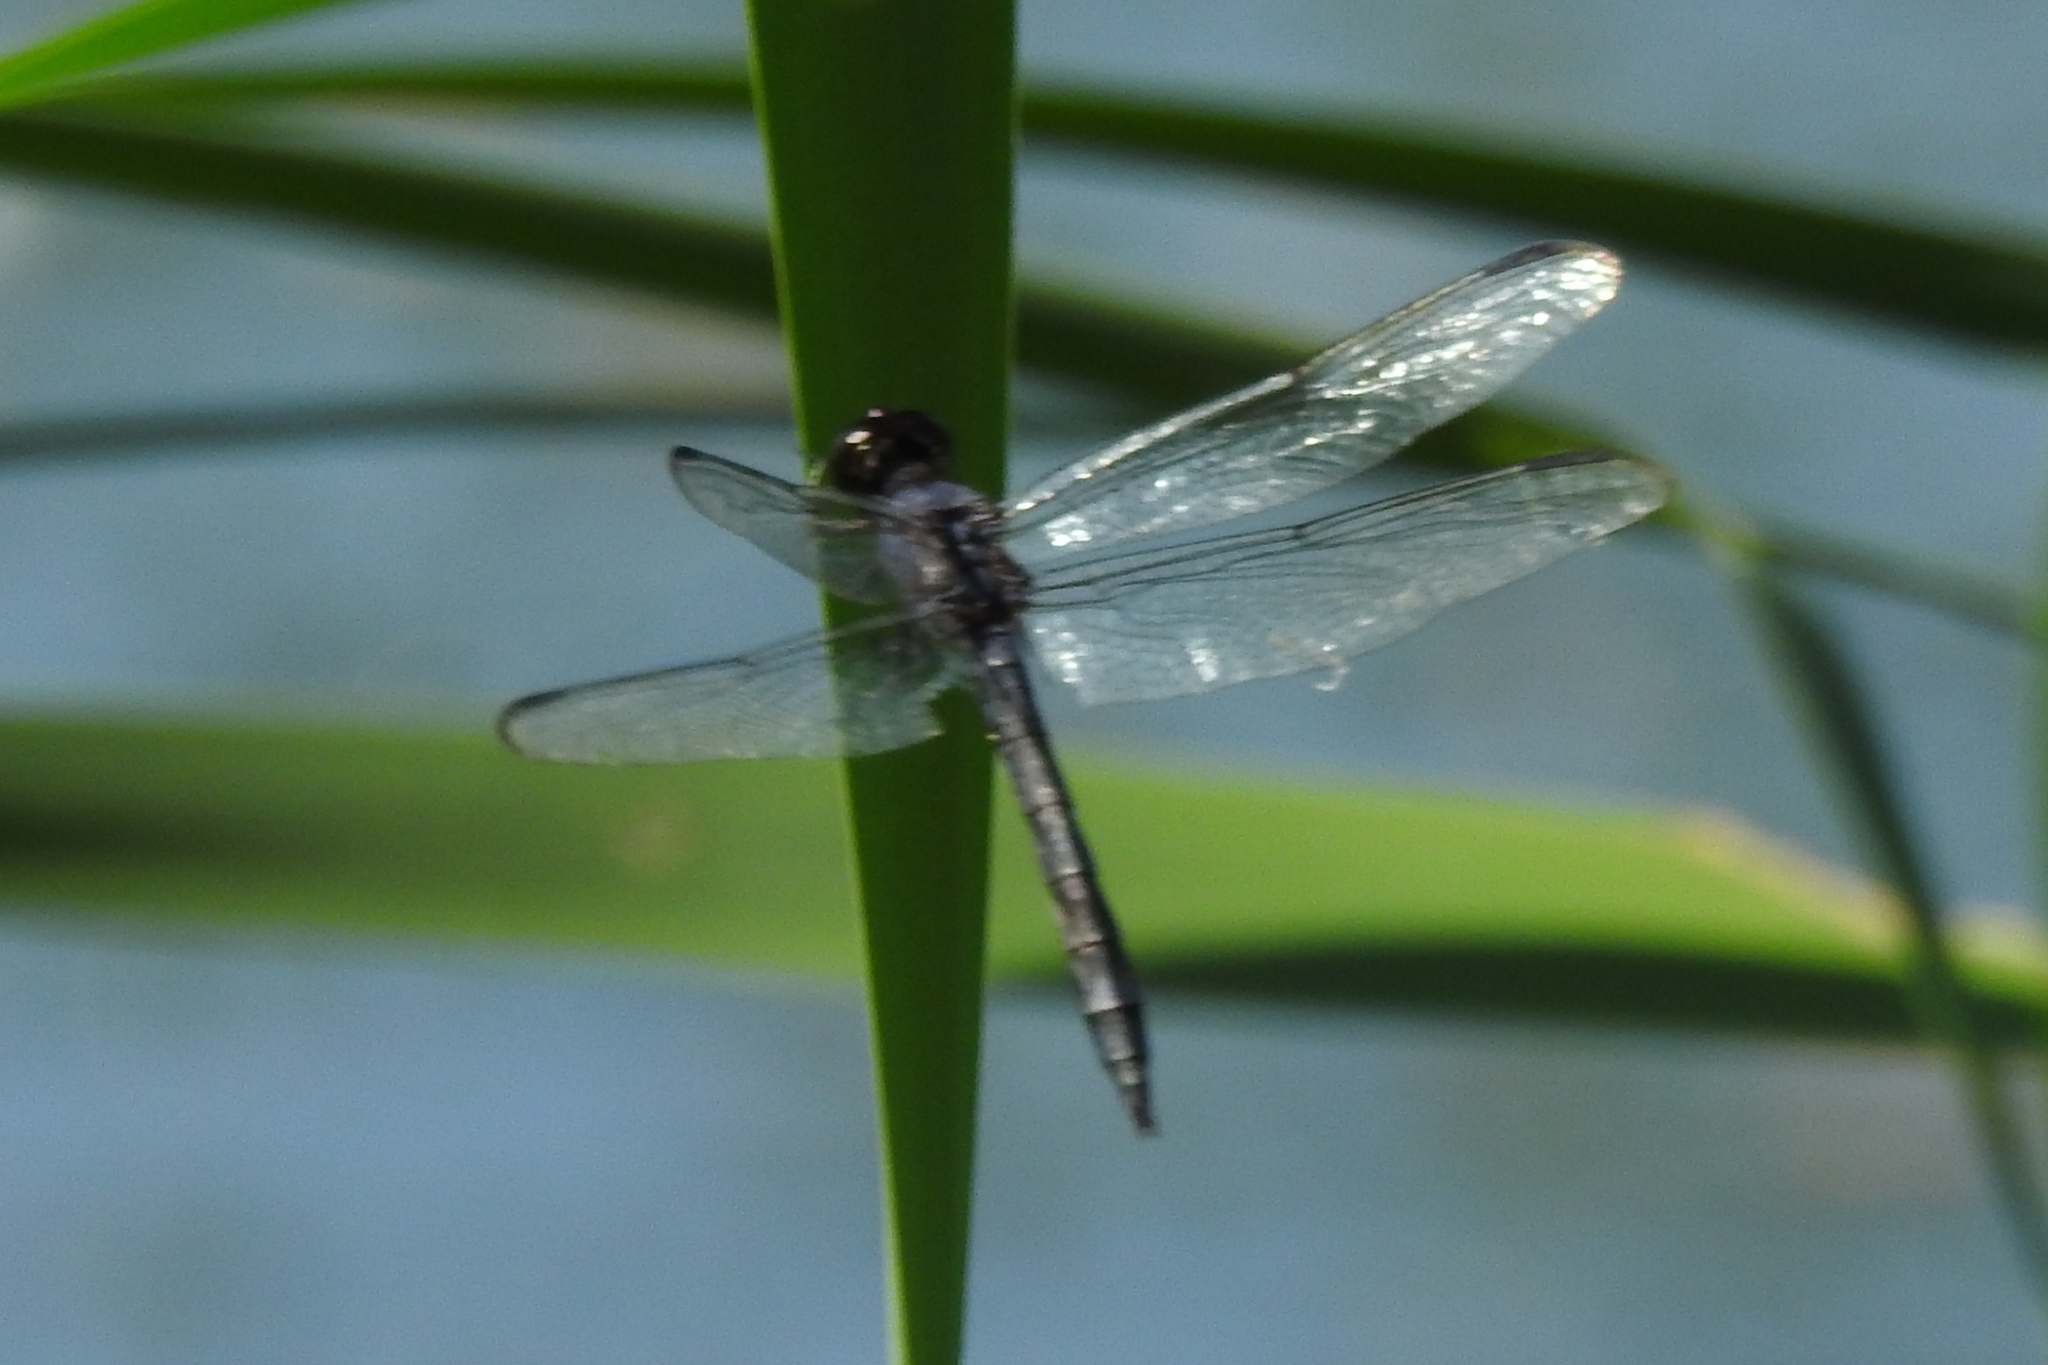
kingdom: Animalia
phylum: Arthropoda
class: Insecta
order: Odonata
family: Libellulidae
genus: Libellula
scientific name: Libellula incesta
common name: Slaty skimmer
